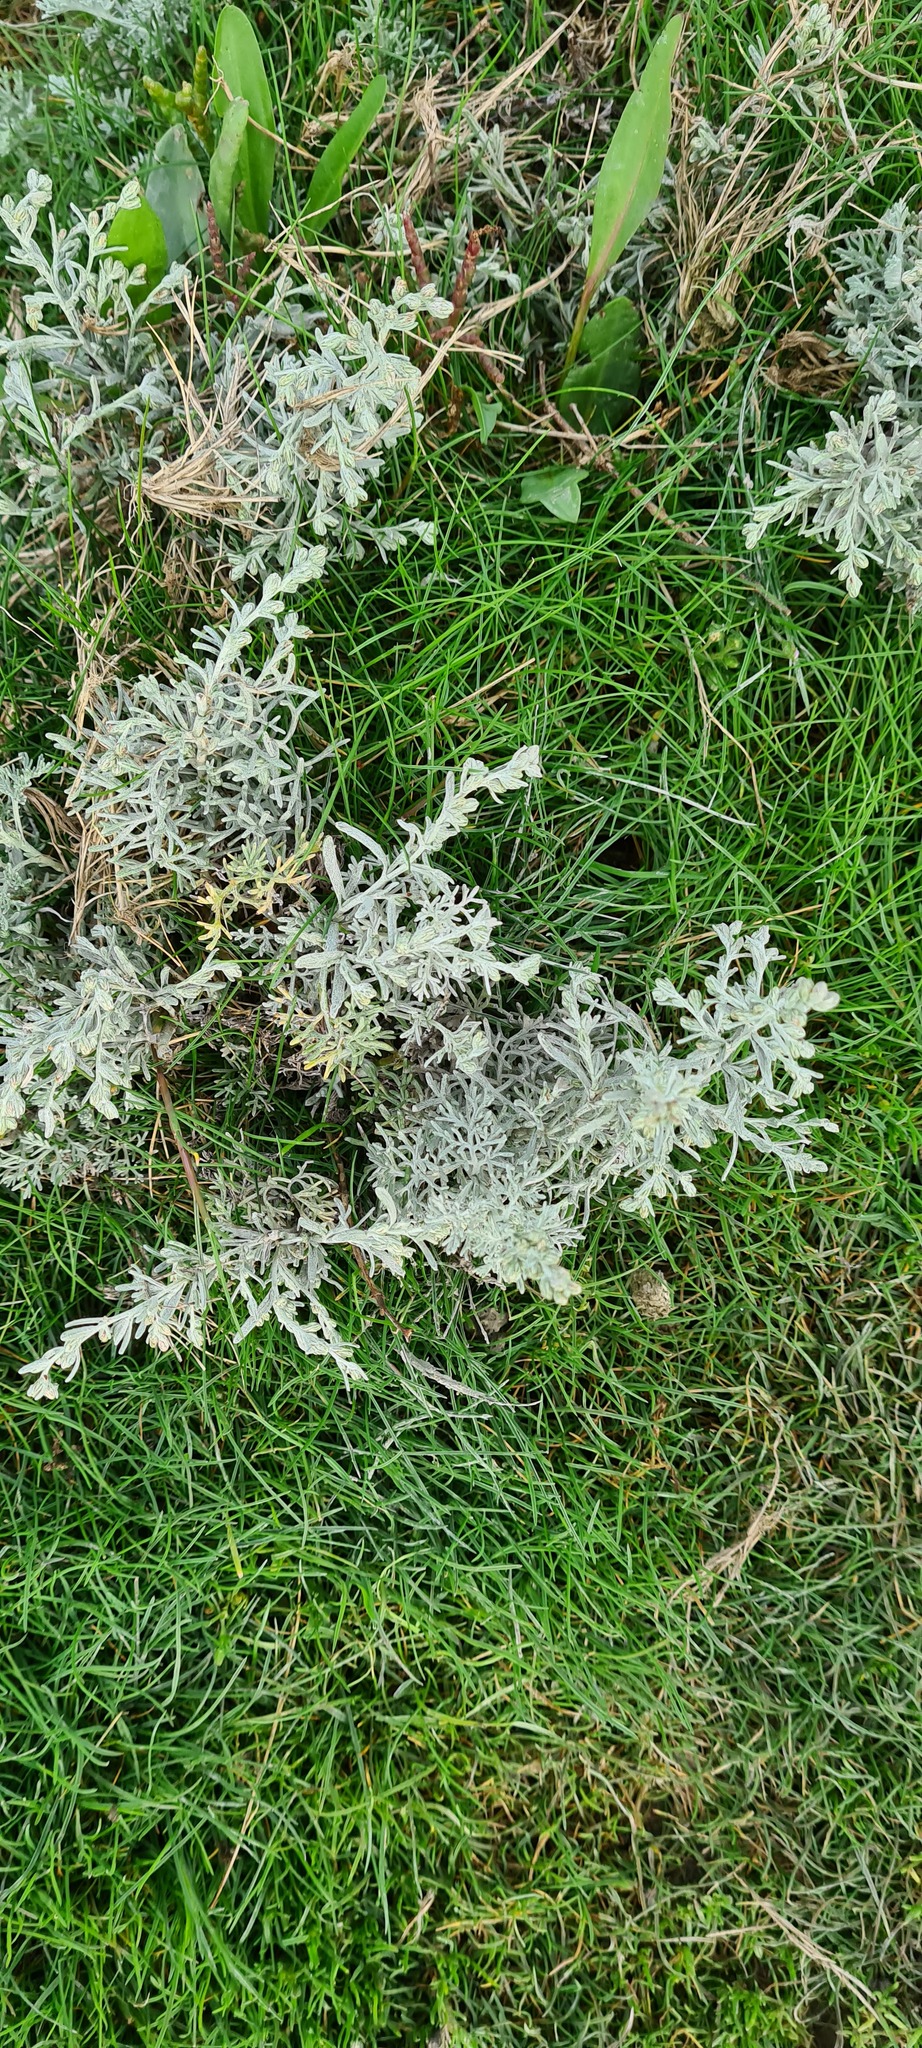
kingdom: Plantae
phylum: Tracheophyta
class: Magnoliopsida
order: Asterales
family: Asteraceae
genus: Artemisia
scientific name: Artemisia maritima
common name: Wormseed
